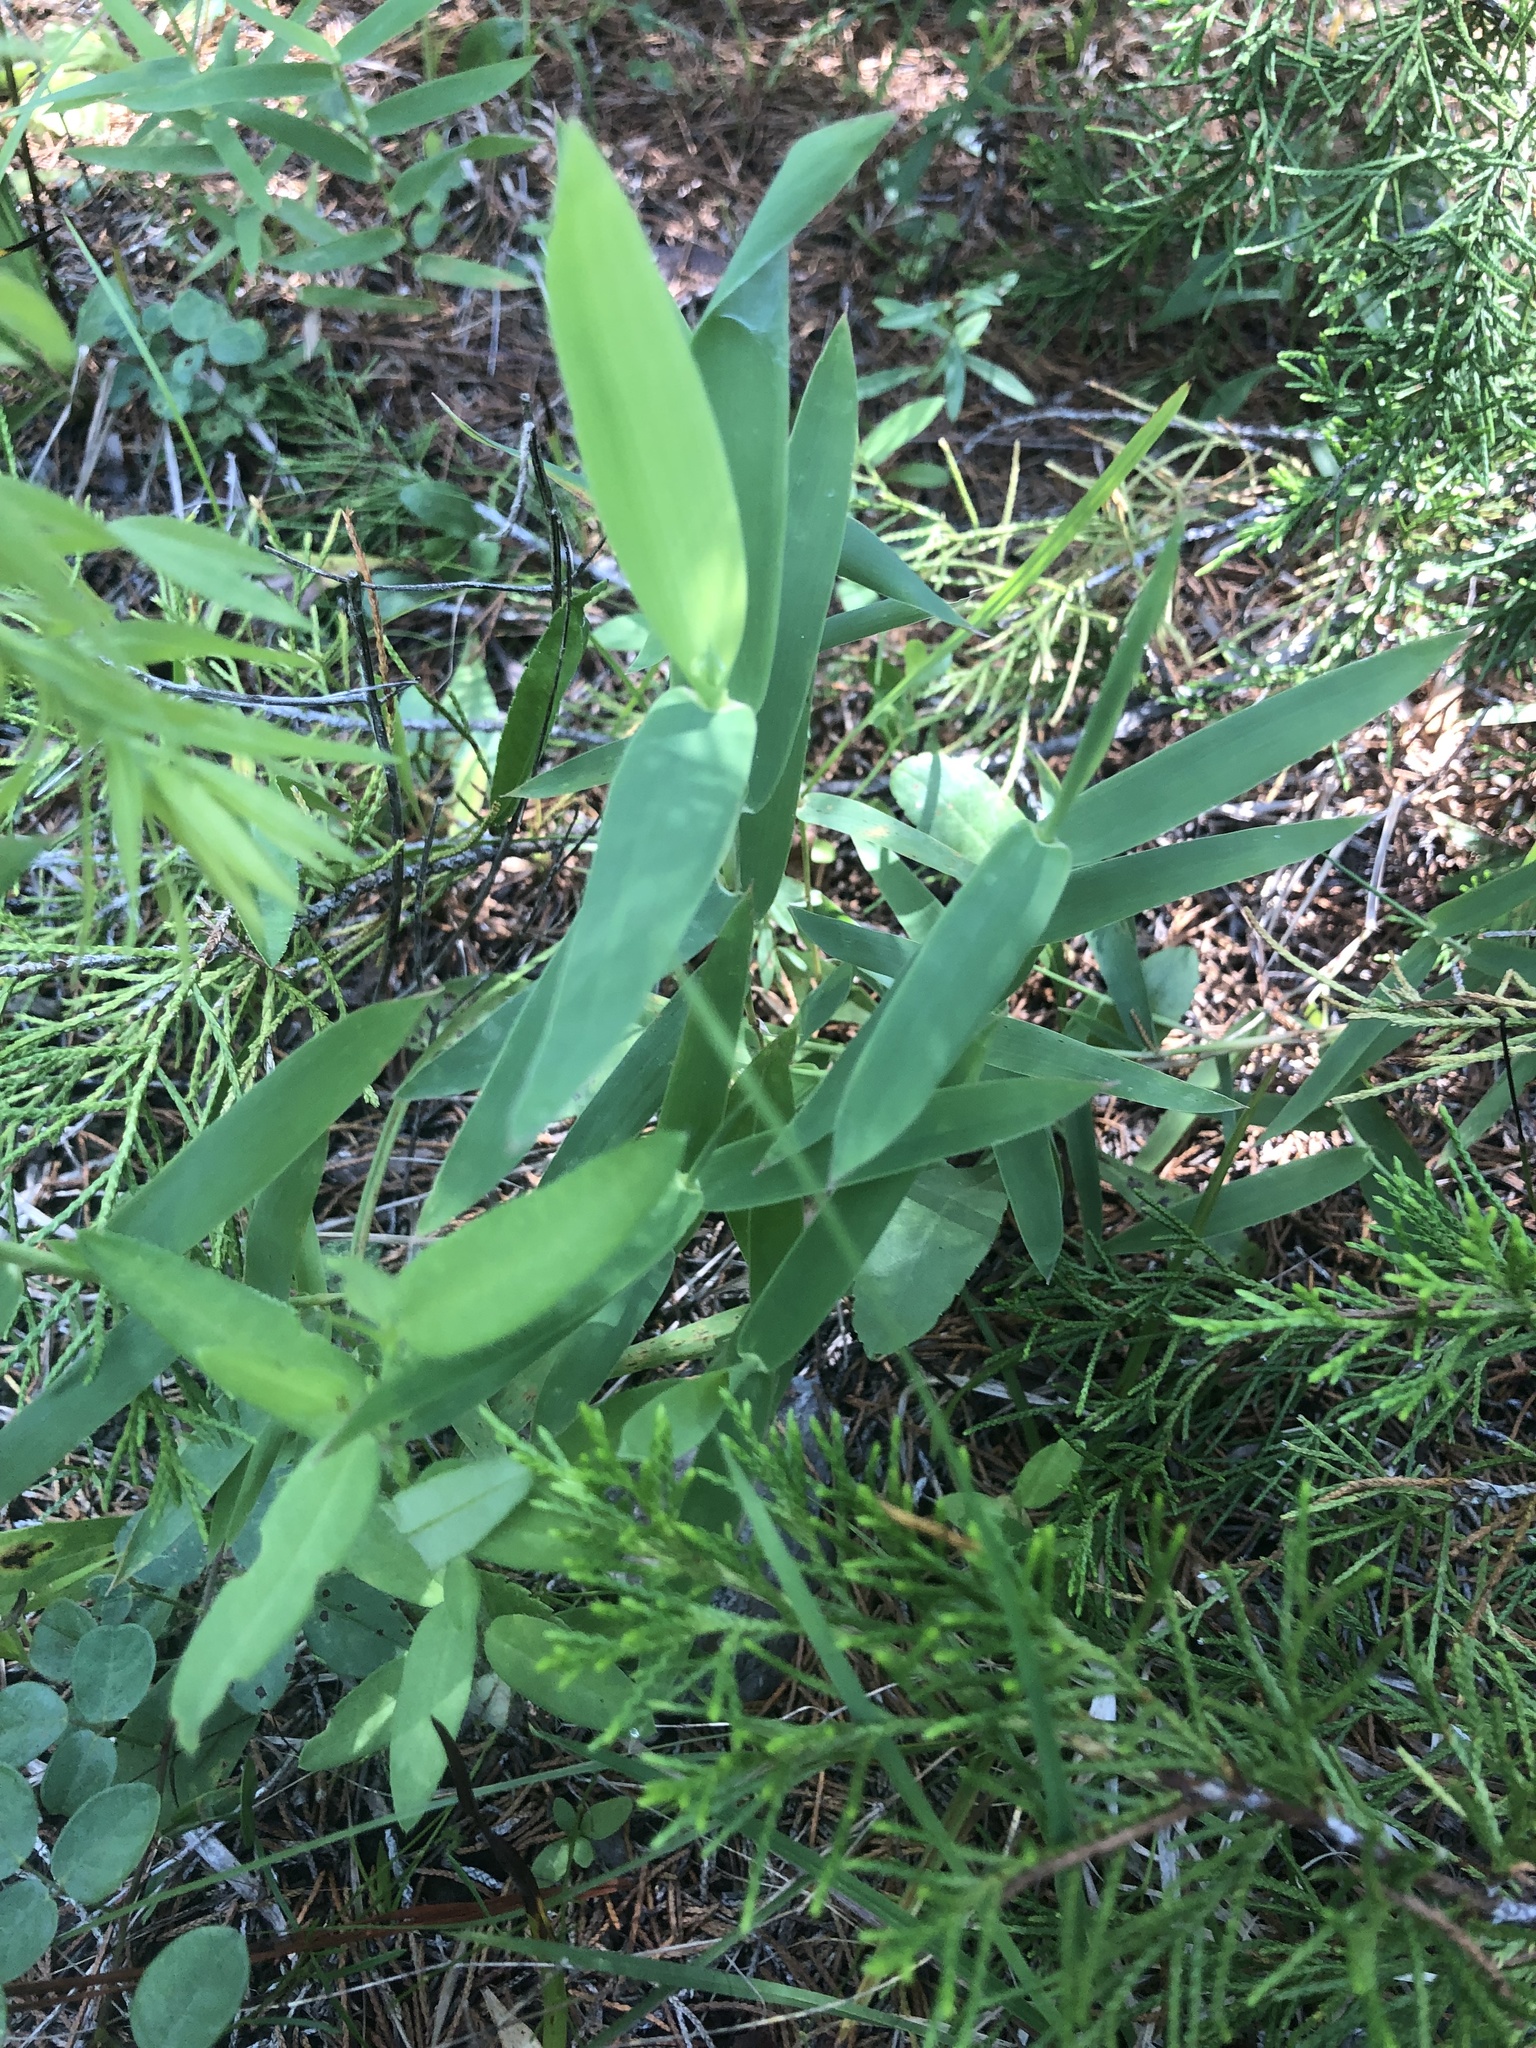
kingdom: Plantae
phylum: Tracheophyta
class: Liliopsida
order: Poales
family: Poaceae
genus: Gymnopogon
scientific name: Gymnopogon ambiguus
